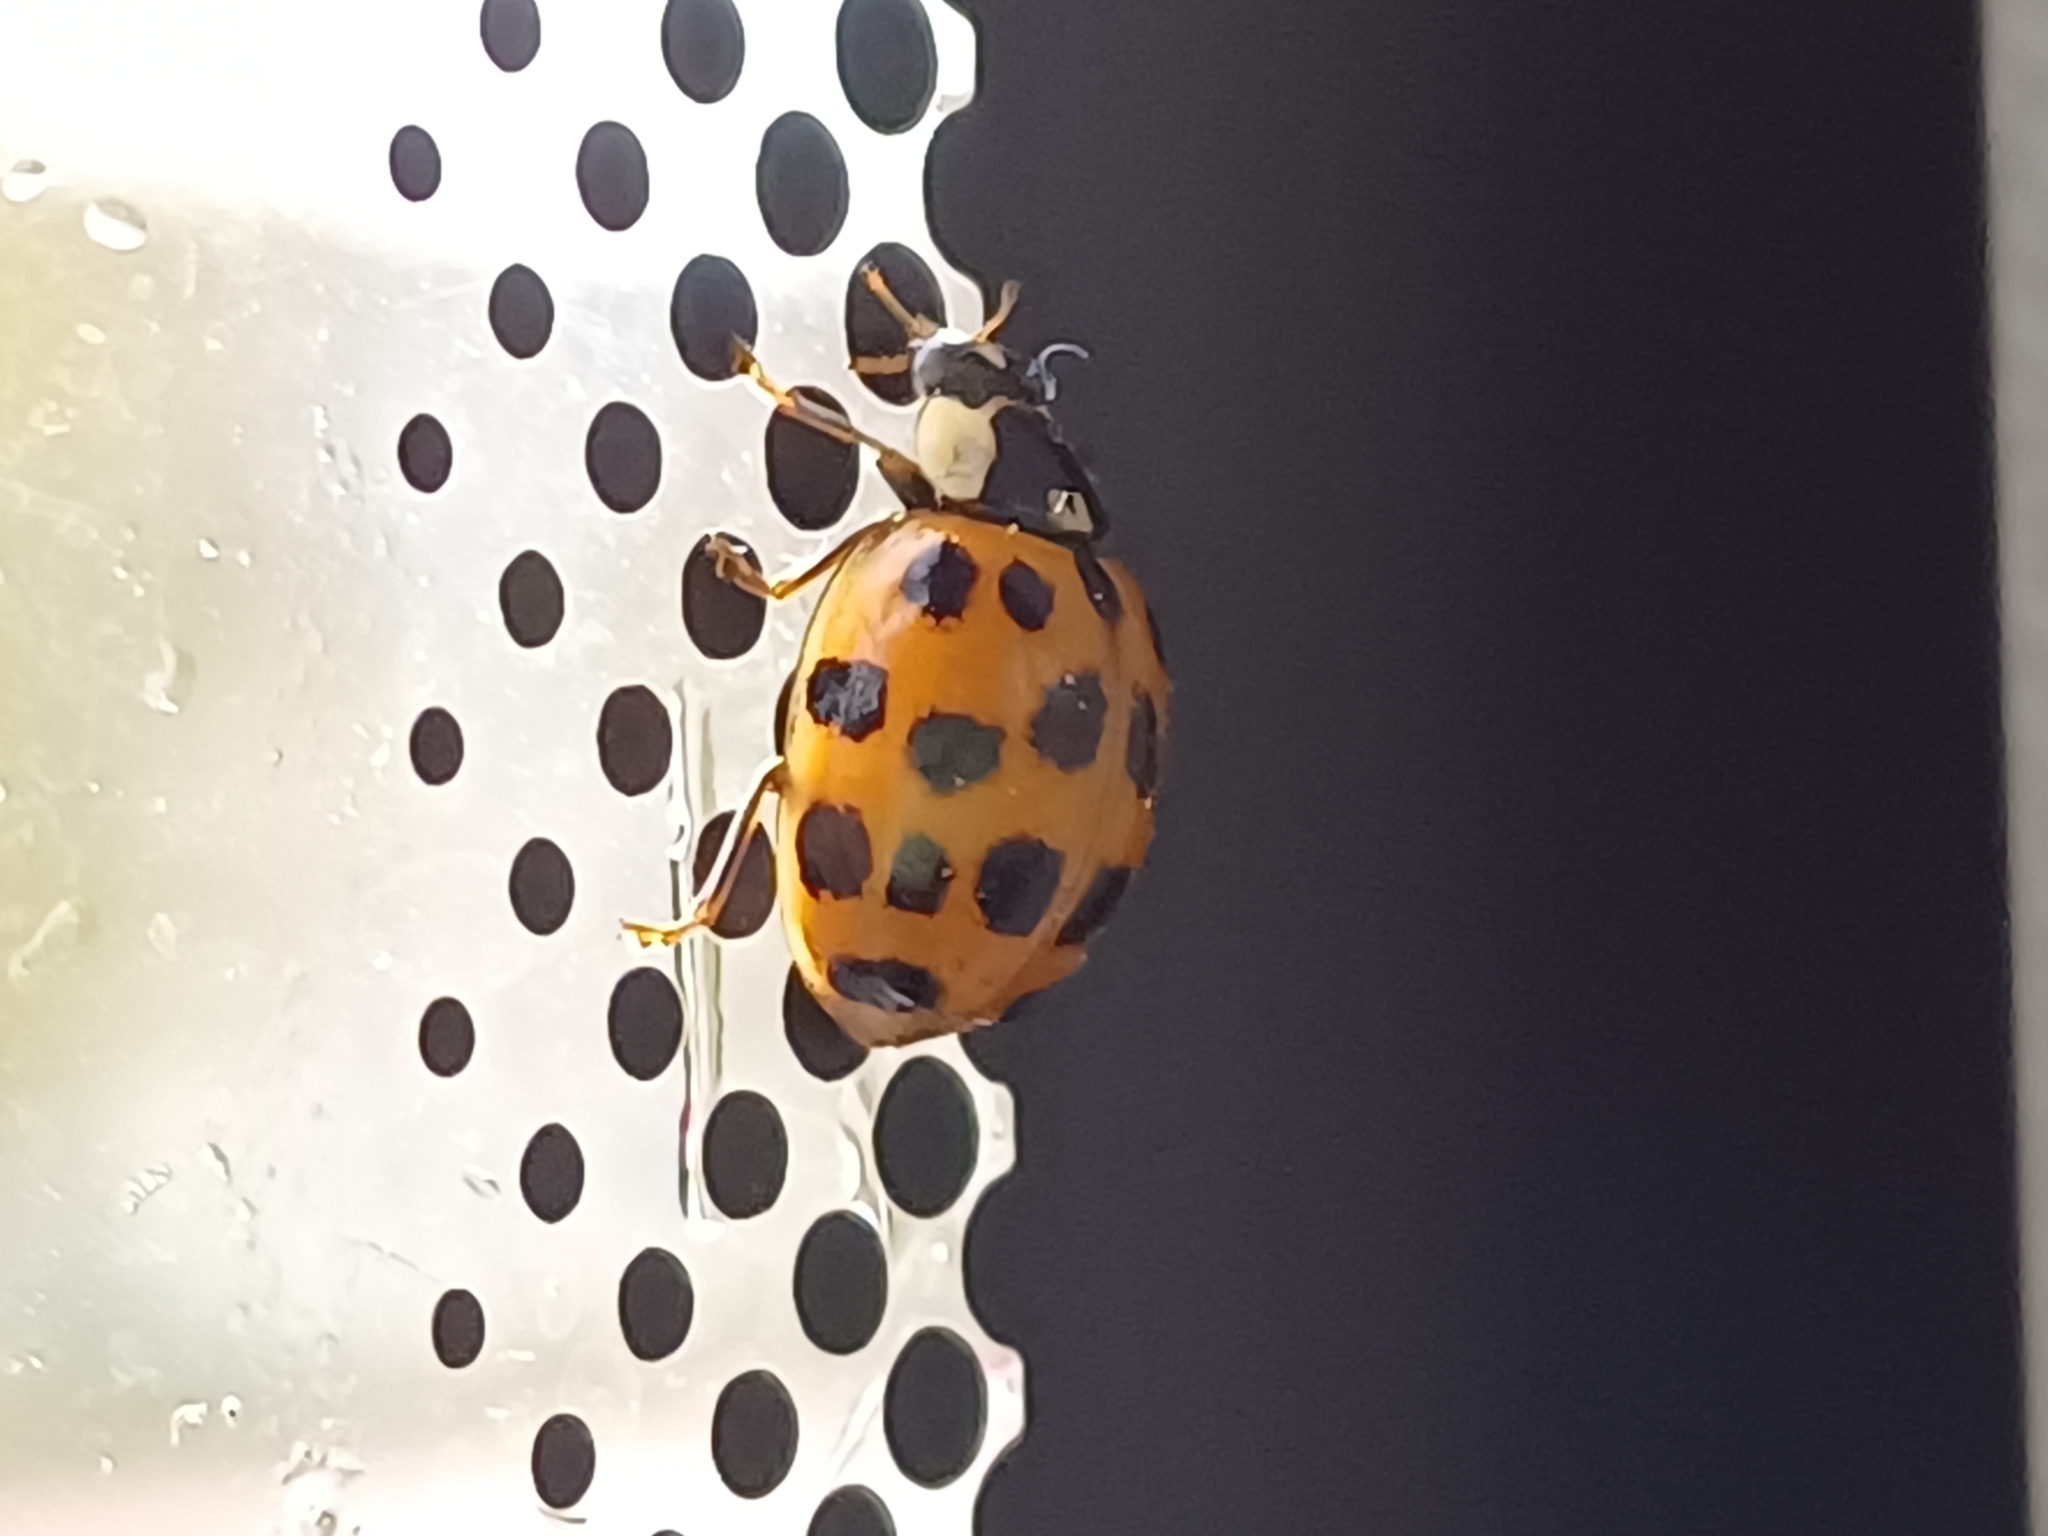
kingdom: Animalia
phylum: Arthropoda
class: Insecta
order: Coleoptera
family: Coccinellidae
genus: Harmonia
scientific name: Harmonia axyridis
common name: Harlequin ladybird
